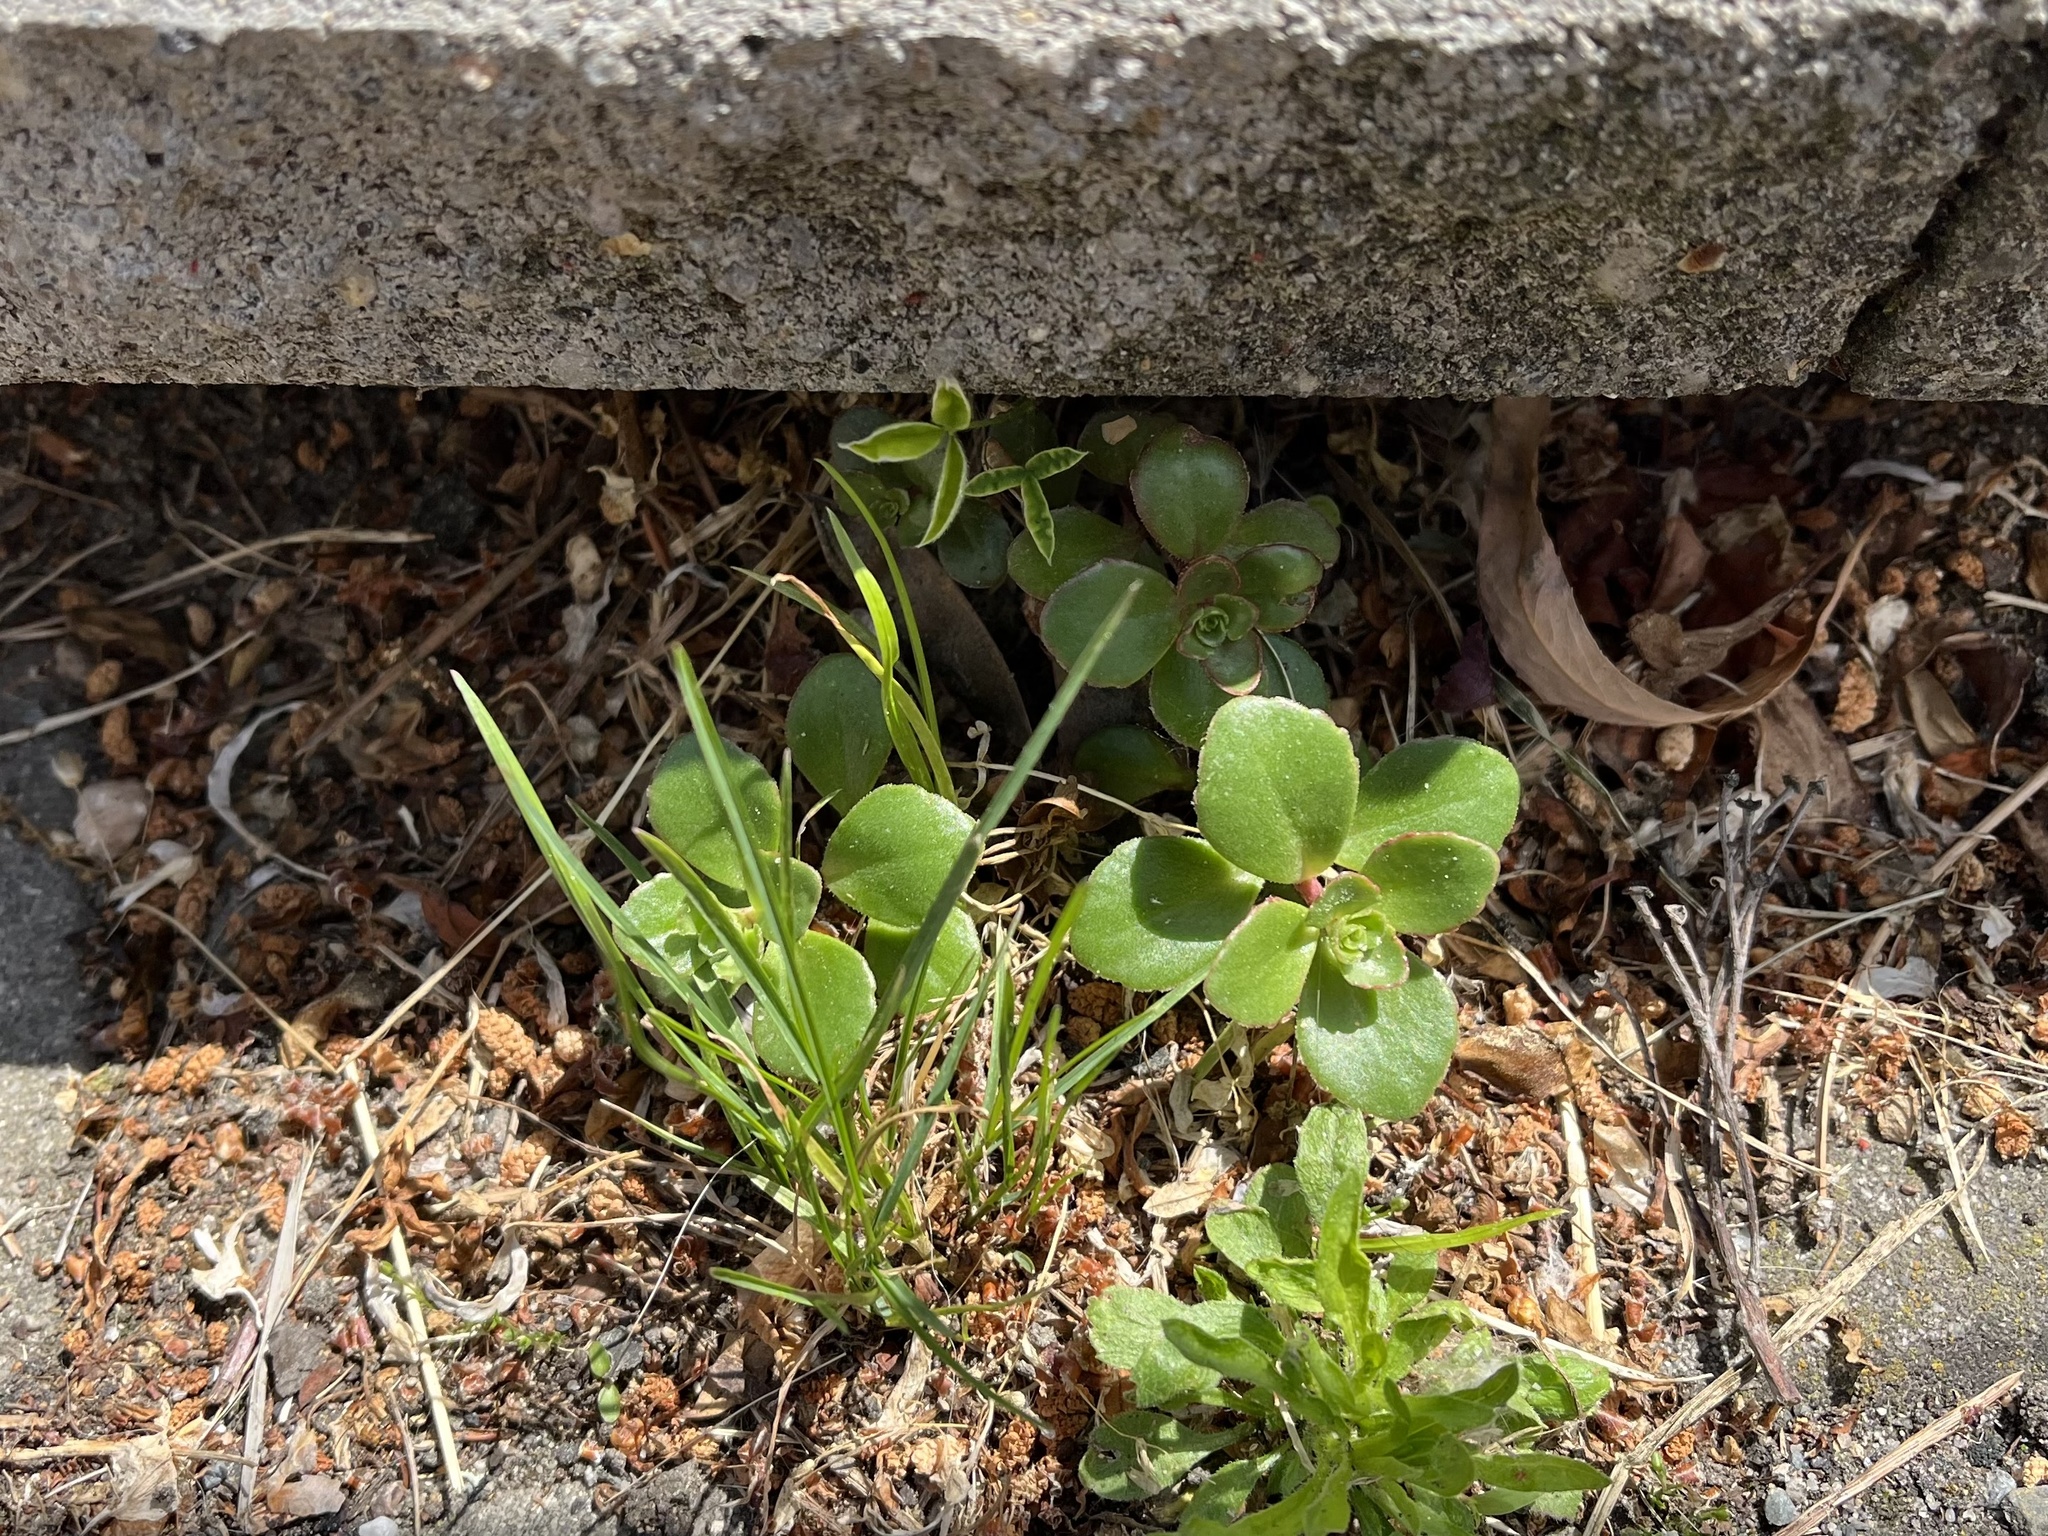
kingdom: Plantae
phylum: Tracheophyta
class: Magnoliopsida
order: Saxifragales
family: Crassulaceae
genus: Phedimus
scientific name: Phedimus spurius
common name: Caucasian stonecrop
